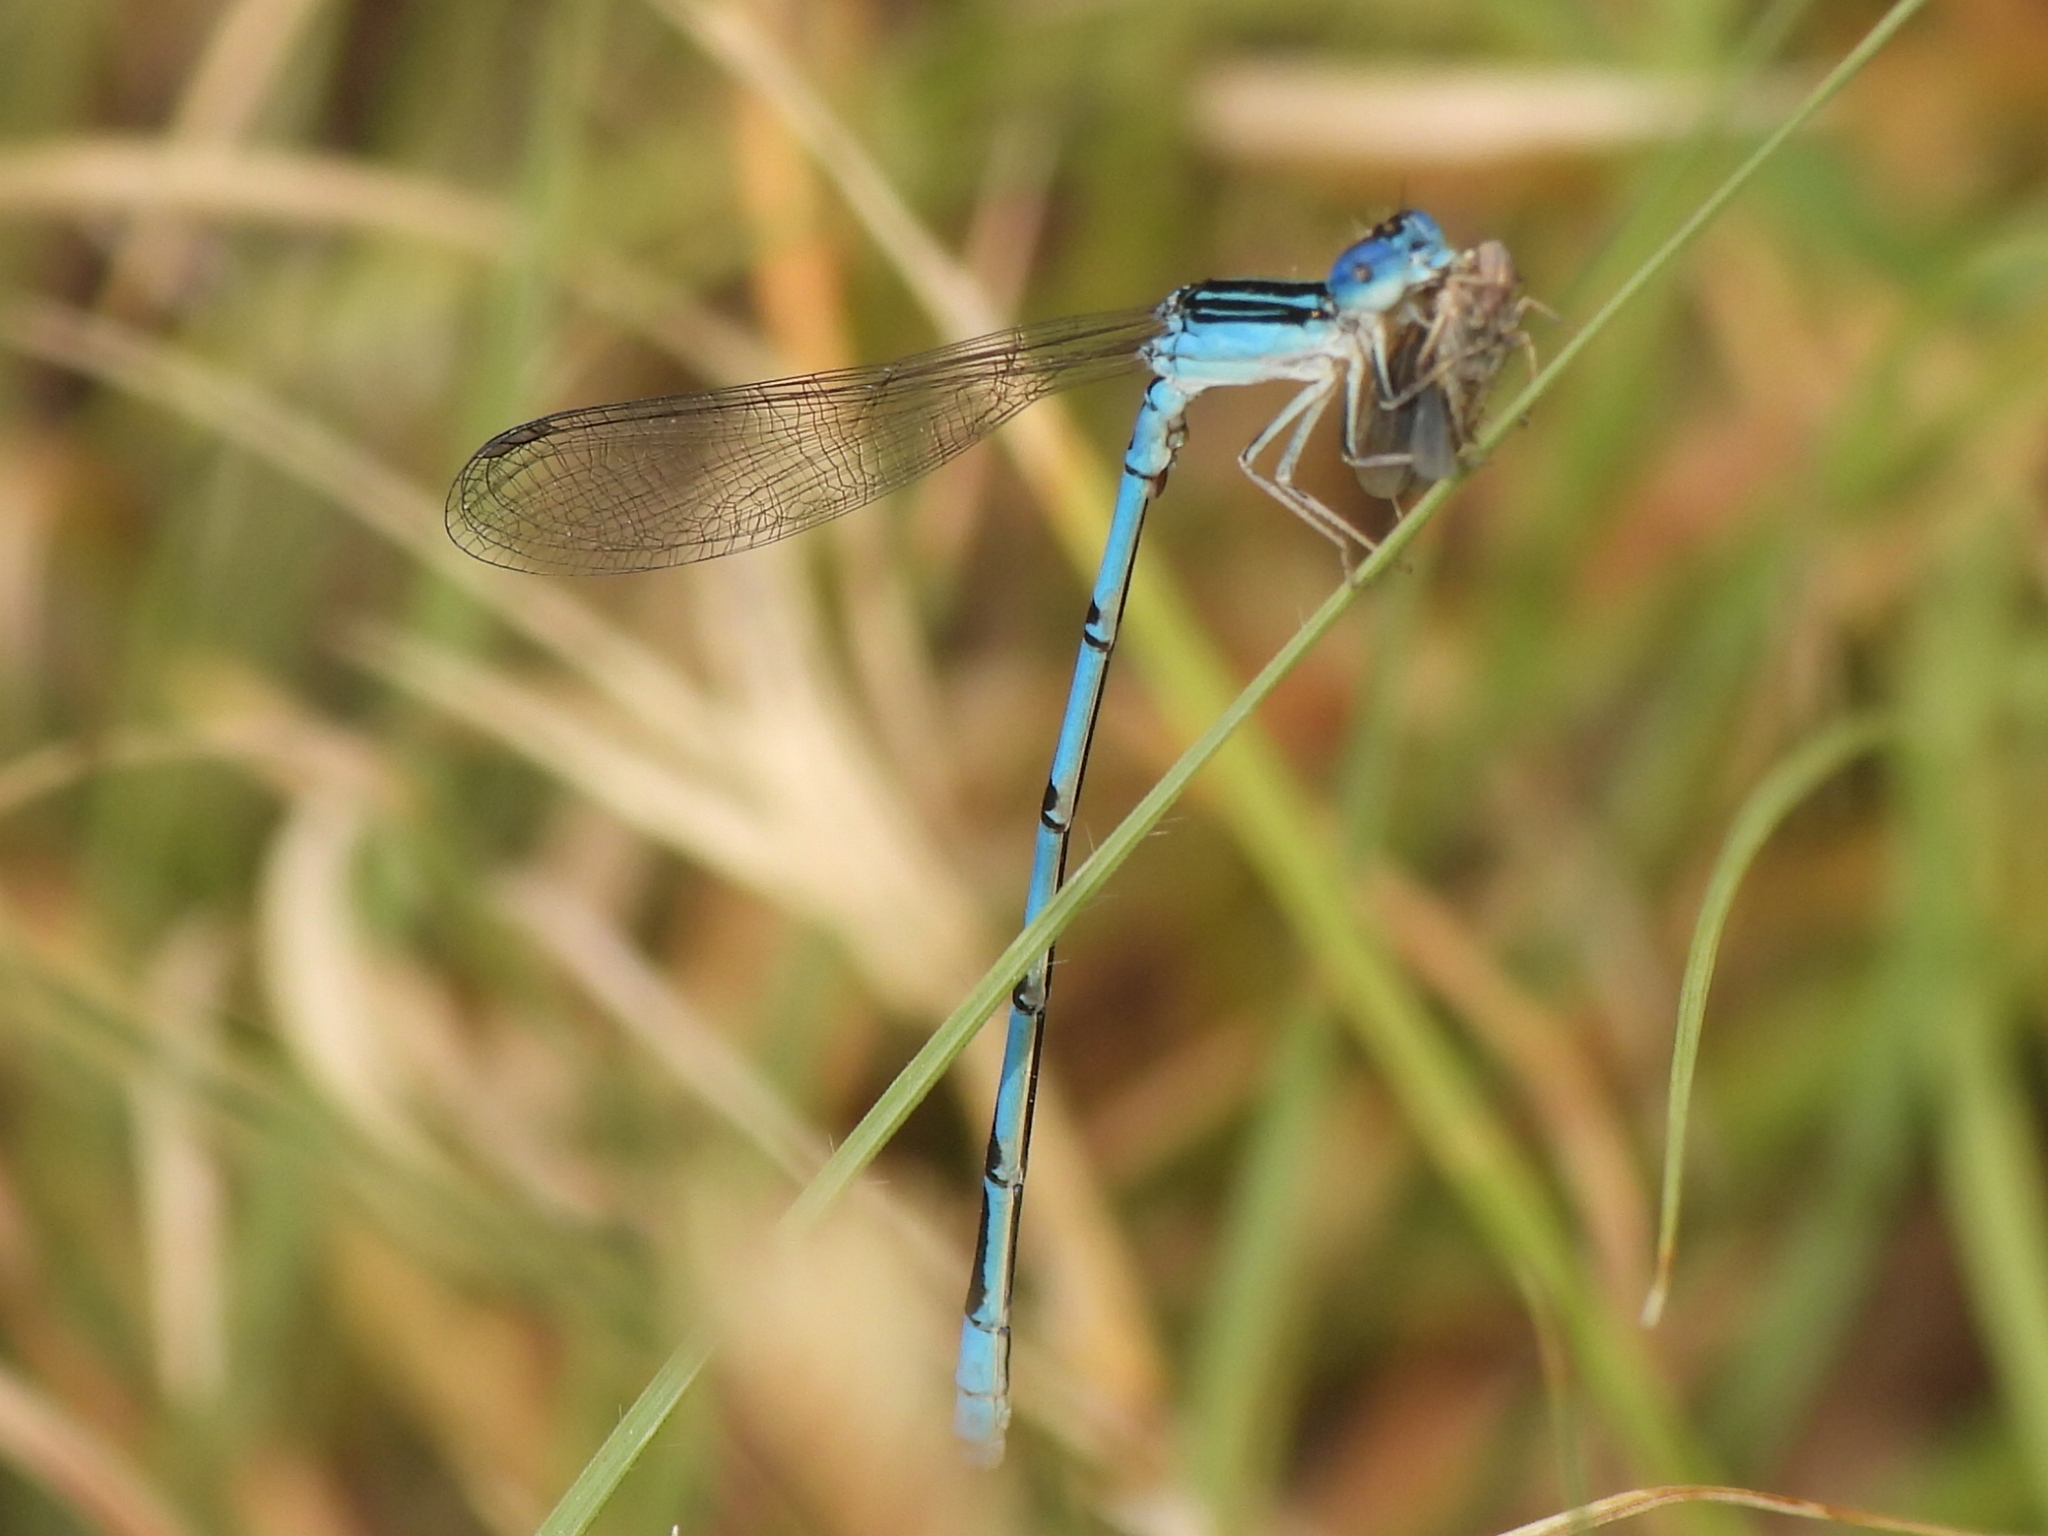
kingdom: Animalia
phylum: Arthropoda
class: Insecta
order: Odonata
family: Coenagrionidae
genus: Enallagma
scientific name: Enallagma basidens
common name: Double-striped bluet
